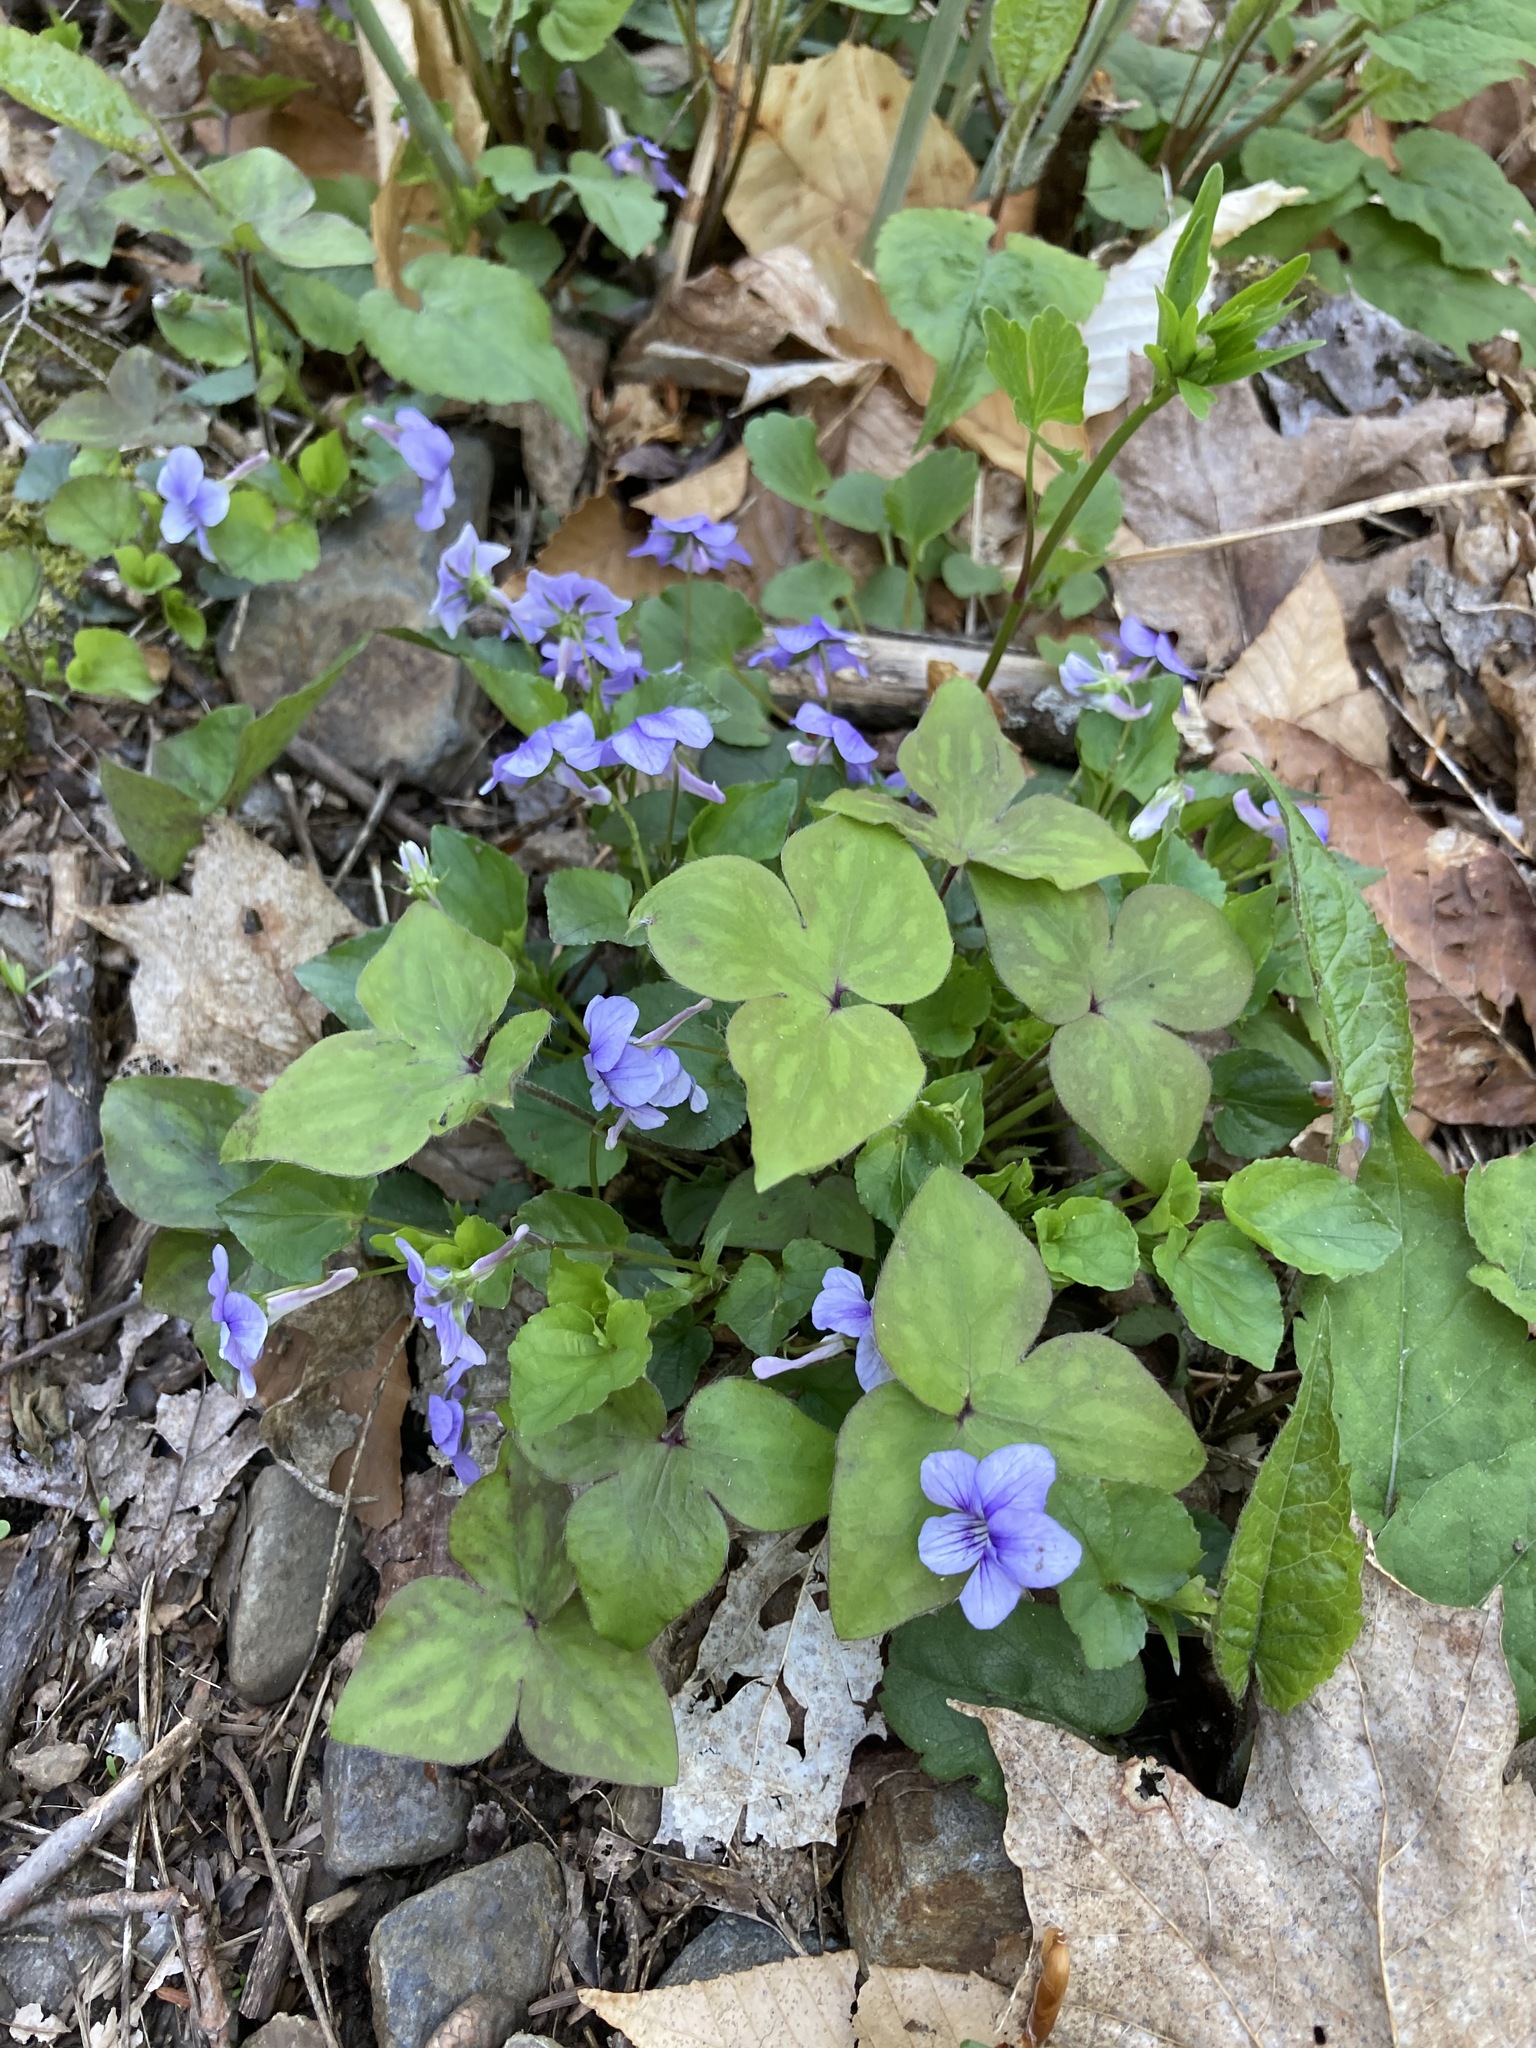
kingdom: Plantae
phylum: Tracheophyta
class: Magnoliopsida
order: Ranunculales
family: Ranunculaceae
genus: Hepatica
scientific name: Hepatica acutiloba
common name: Sharp-lobed hepatica
